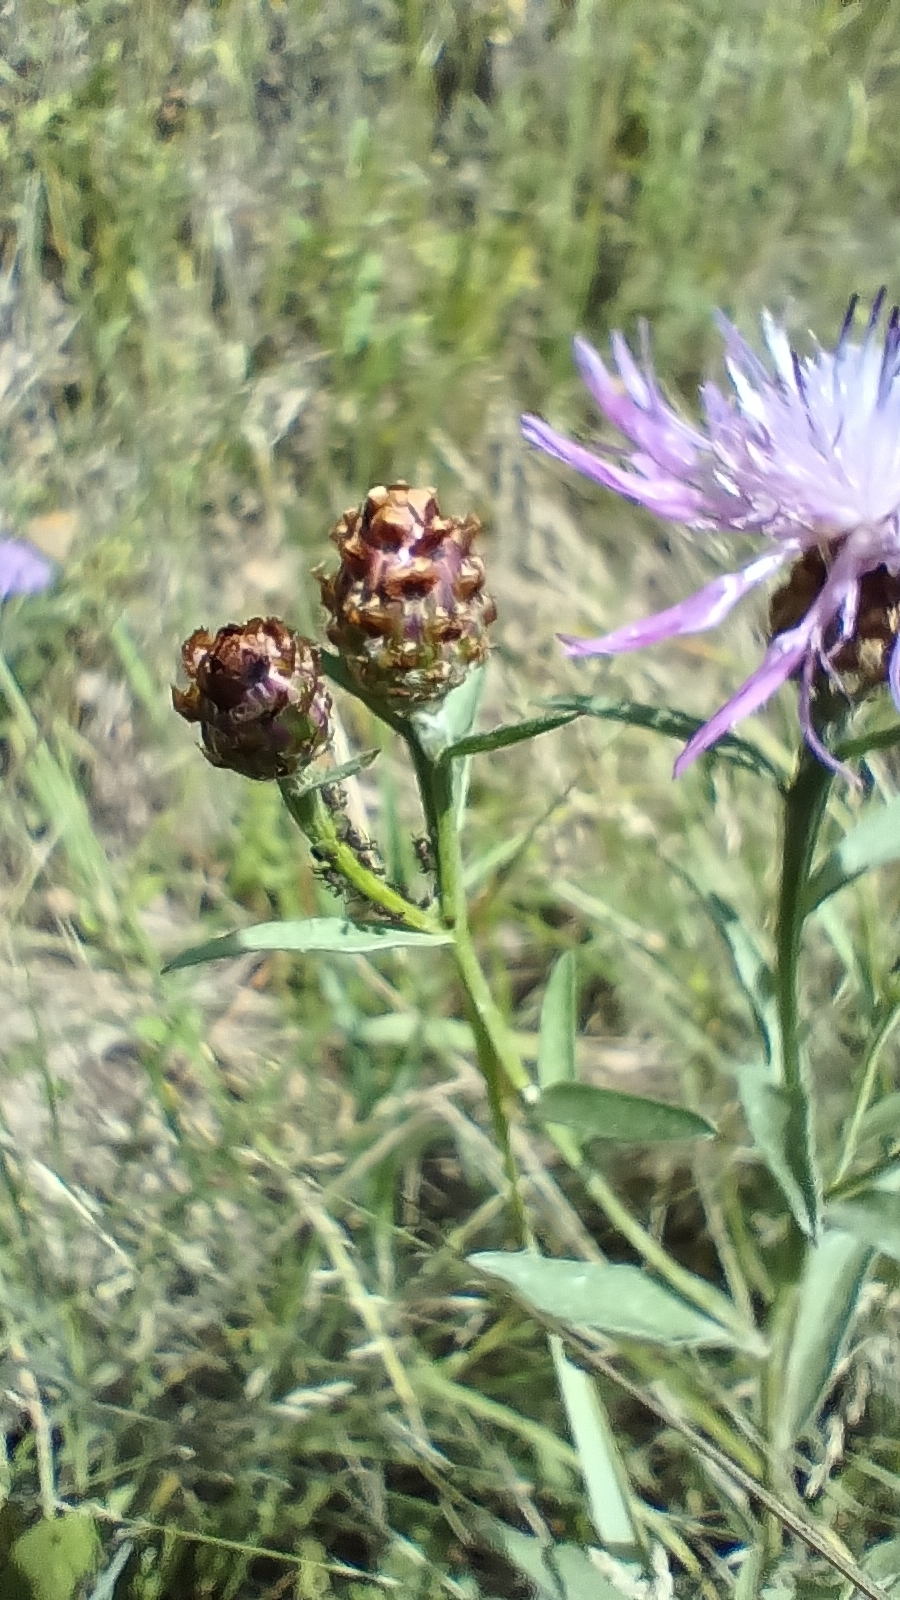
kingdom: Plantae
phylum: Tracheophyta
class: Magnoliopsida
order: Asterales
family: Asteraceae
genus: Centaurea
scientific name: Centaurea jacea
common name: Brown knapweed
